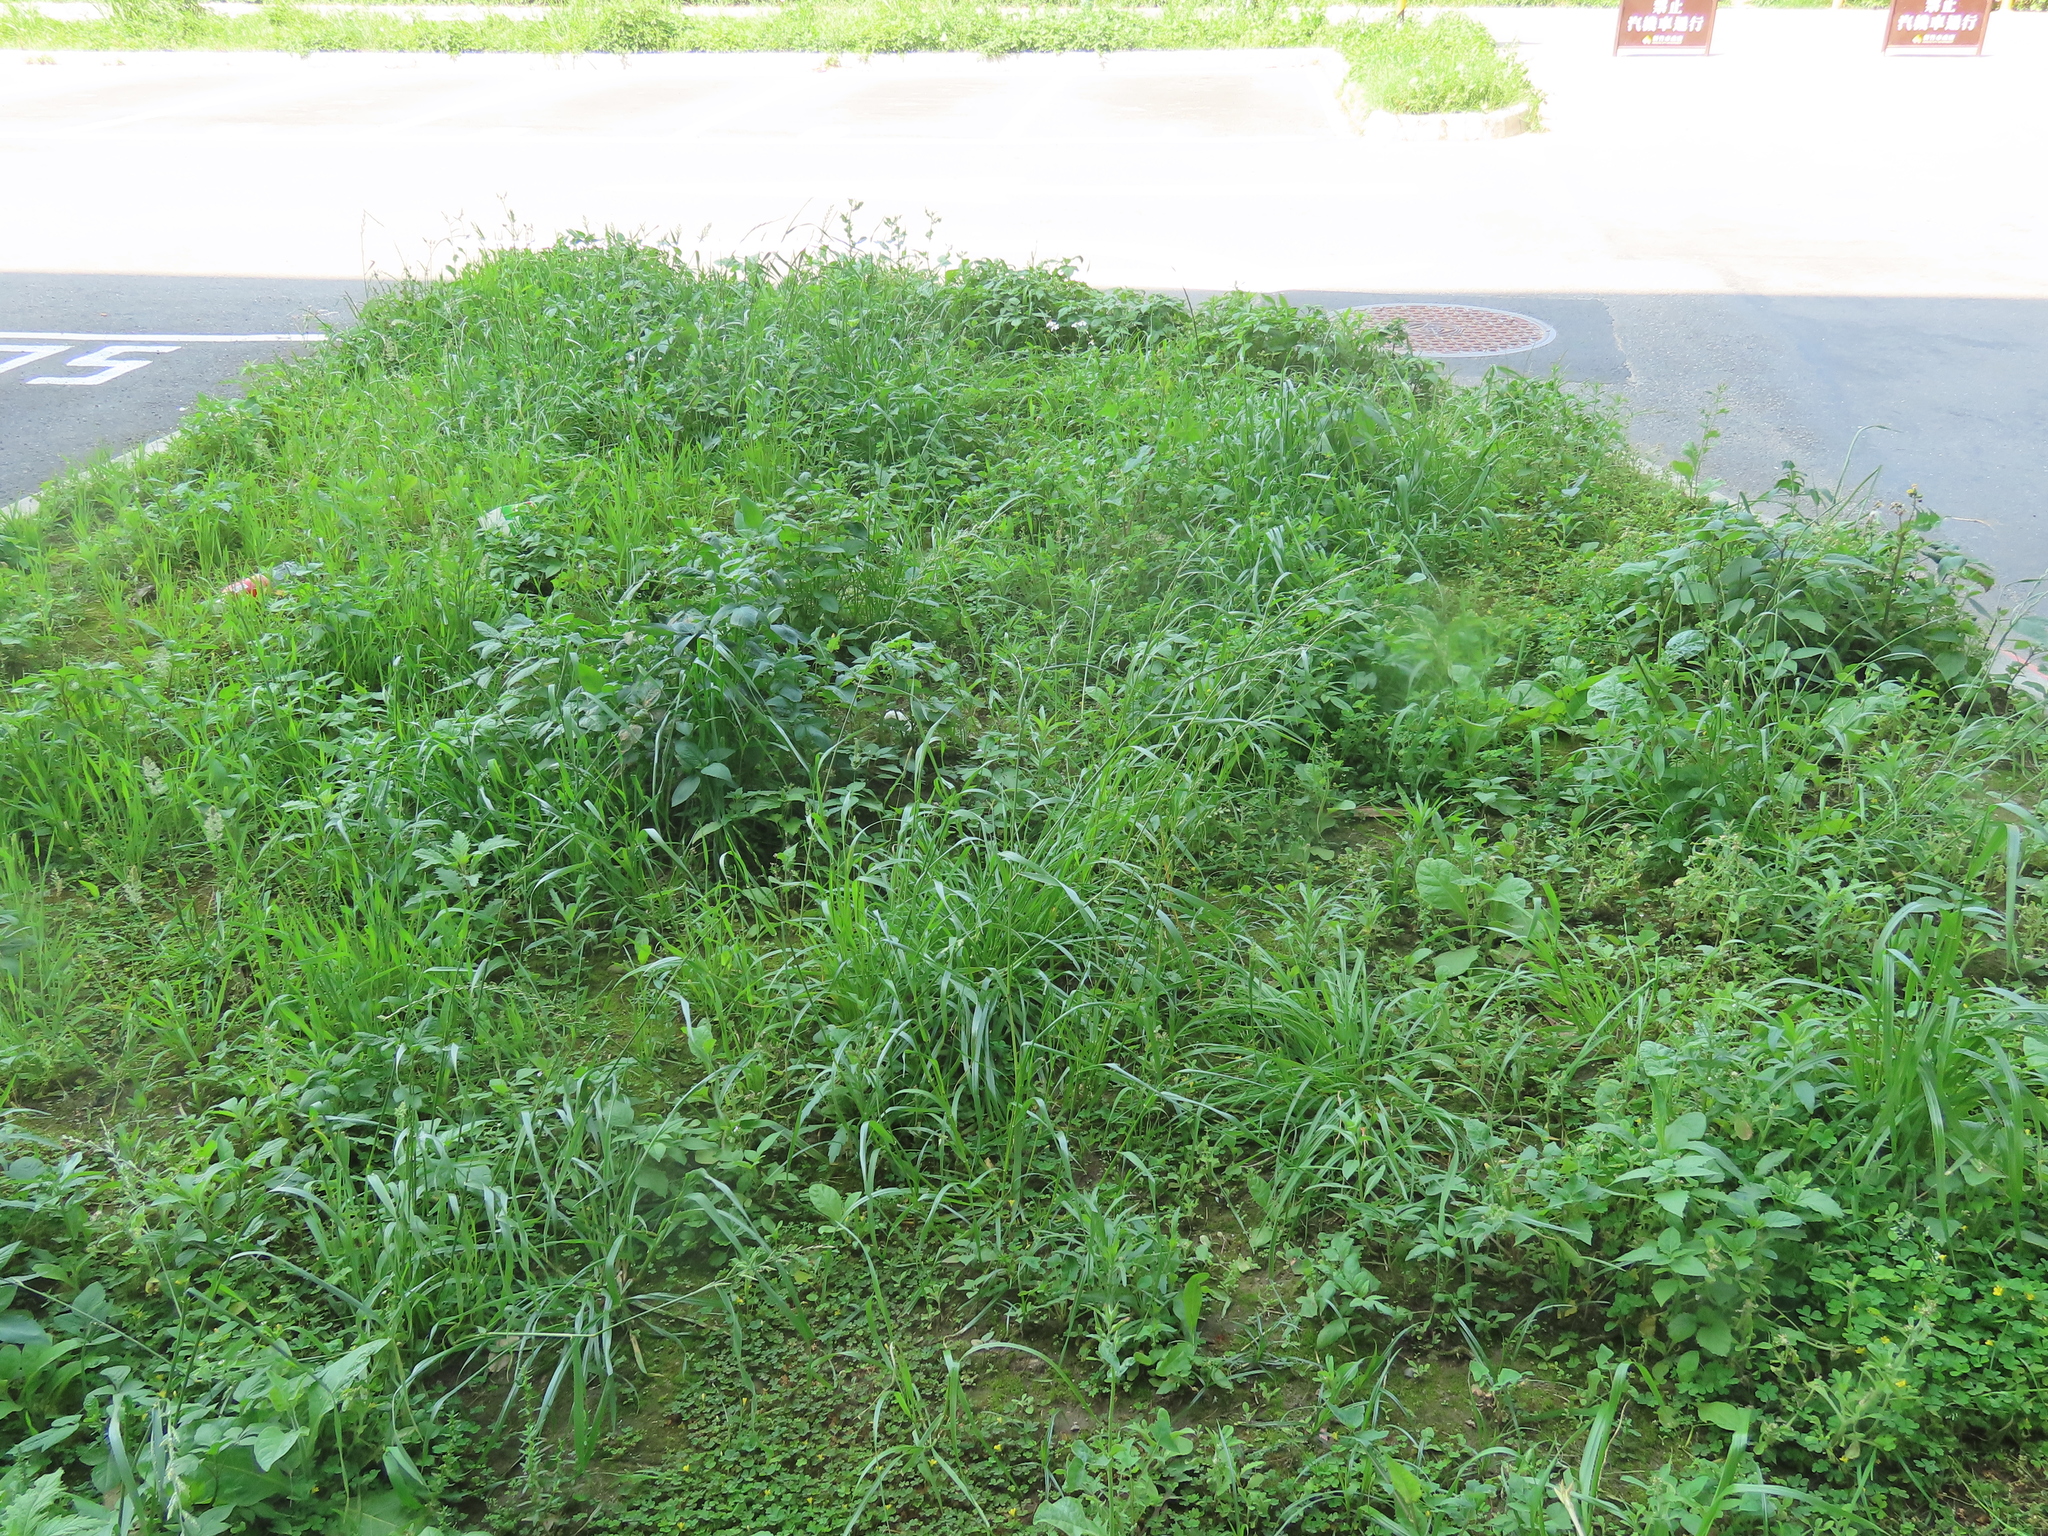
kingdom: Plantae
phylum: Tracheophyta
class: Liliopsida
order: Poales
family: Poaceae
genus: Lolium
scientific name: Lolium perenne
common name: Perennial ryegrass
